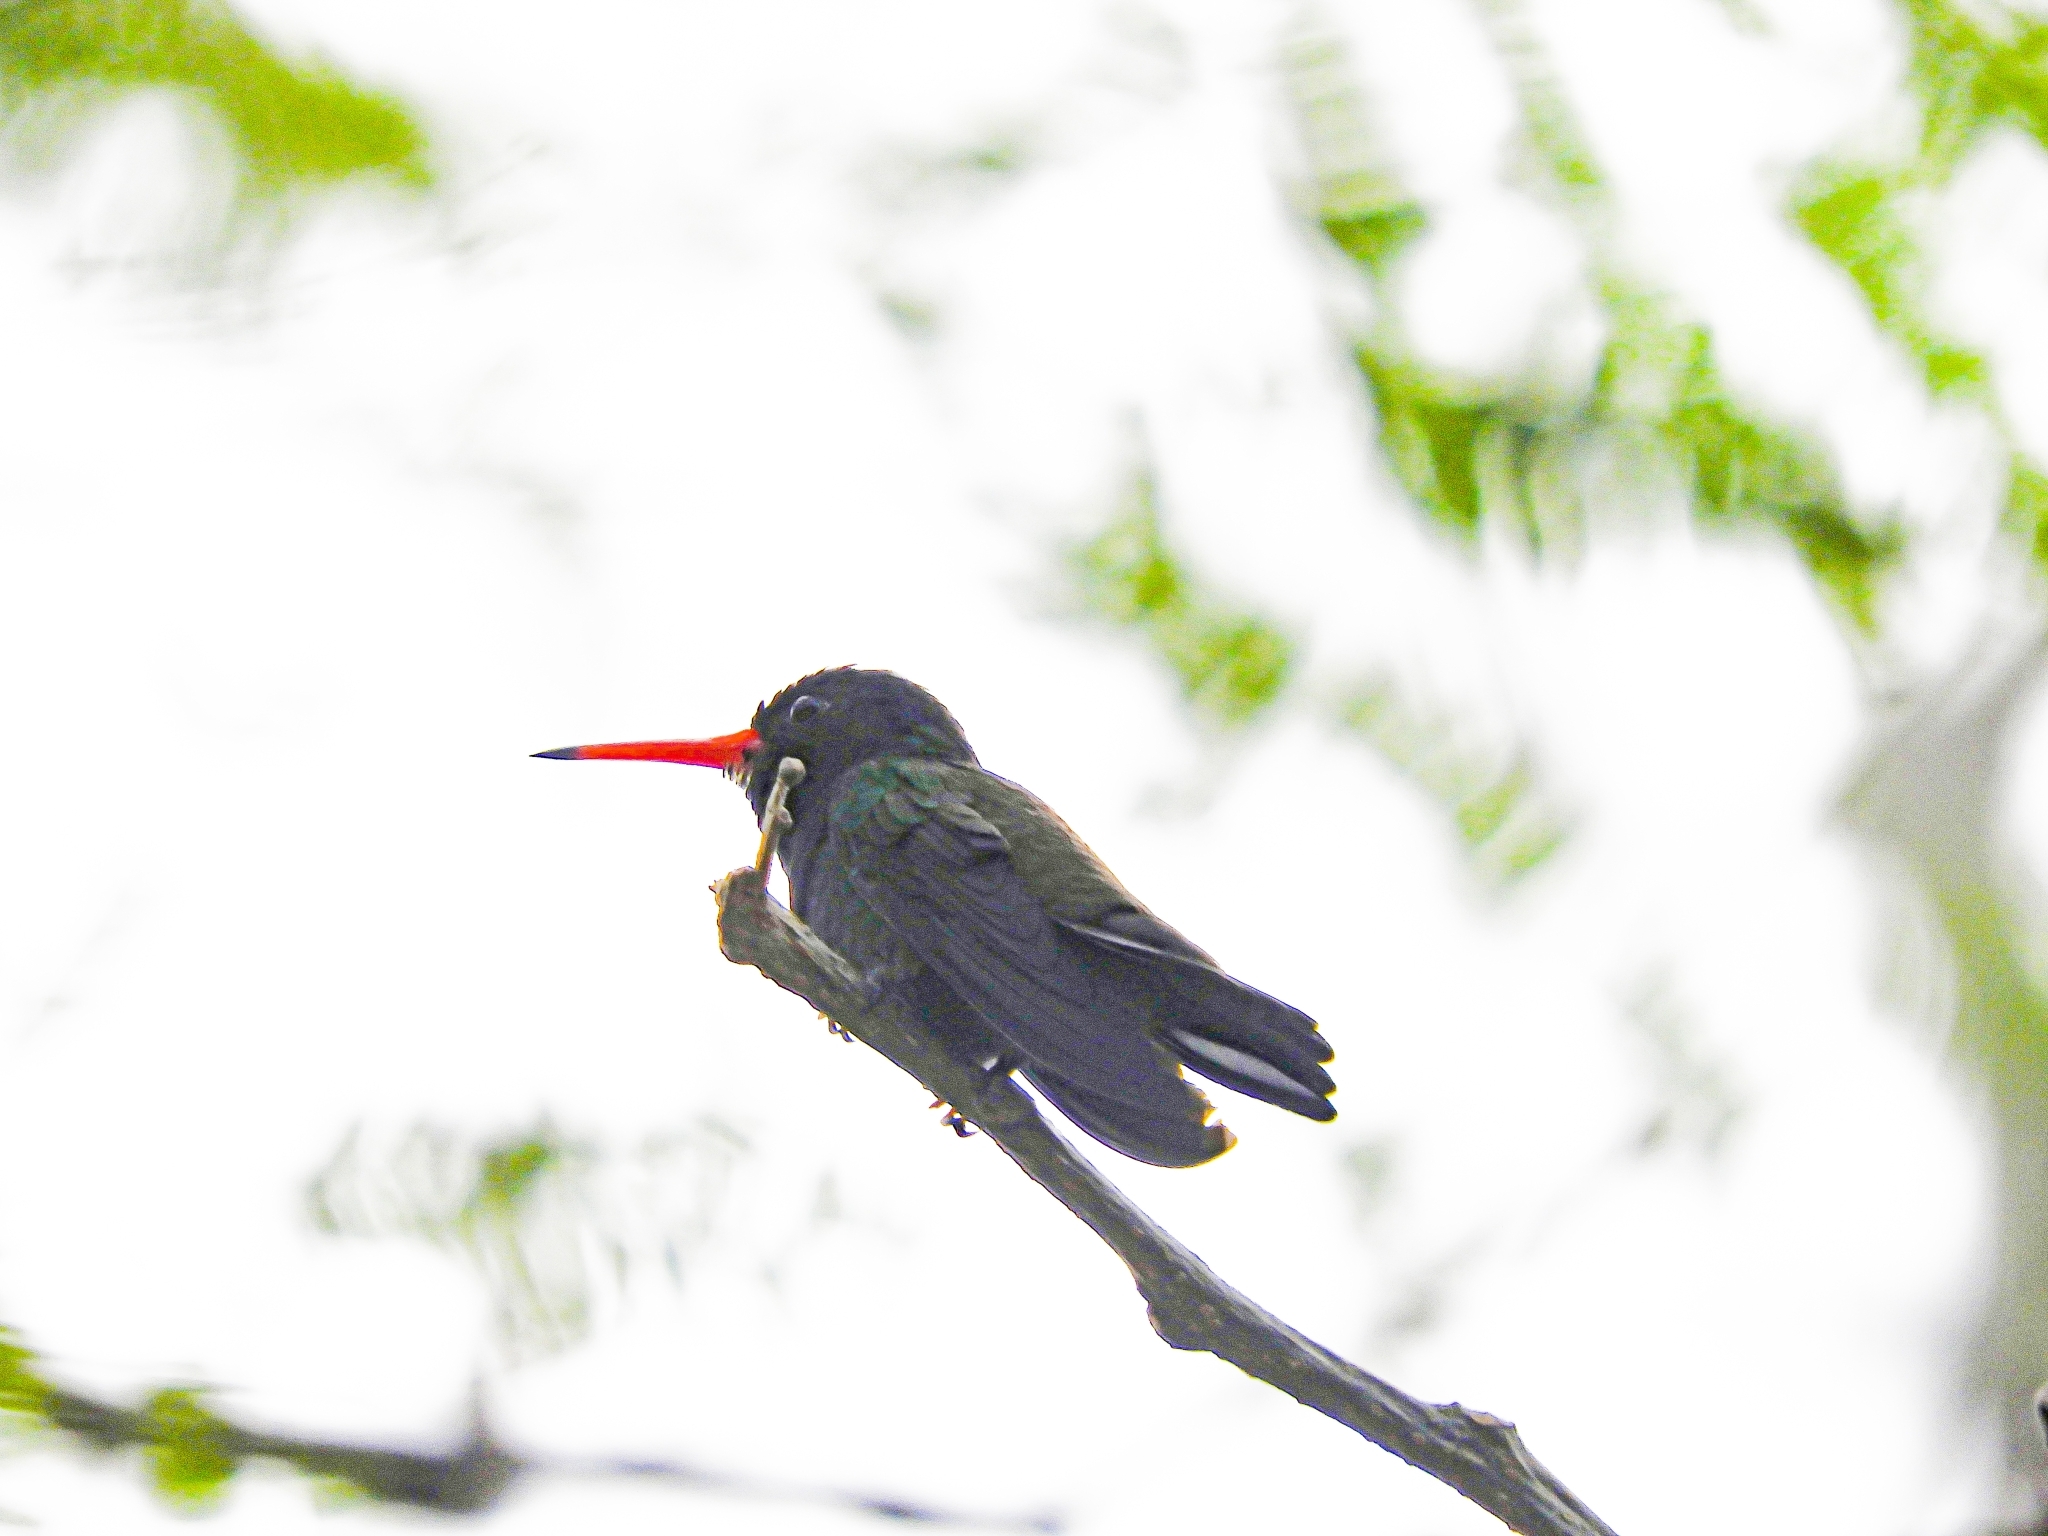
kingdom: Animalia
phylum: Chordata
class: Aves
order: Apodiformes
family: Trochilidae
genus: Chlorestes
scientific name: Chlorestes cyanus
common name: White-chinned sapphire
